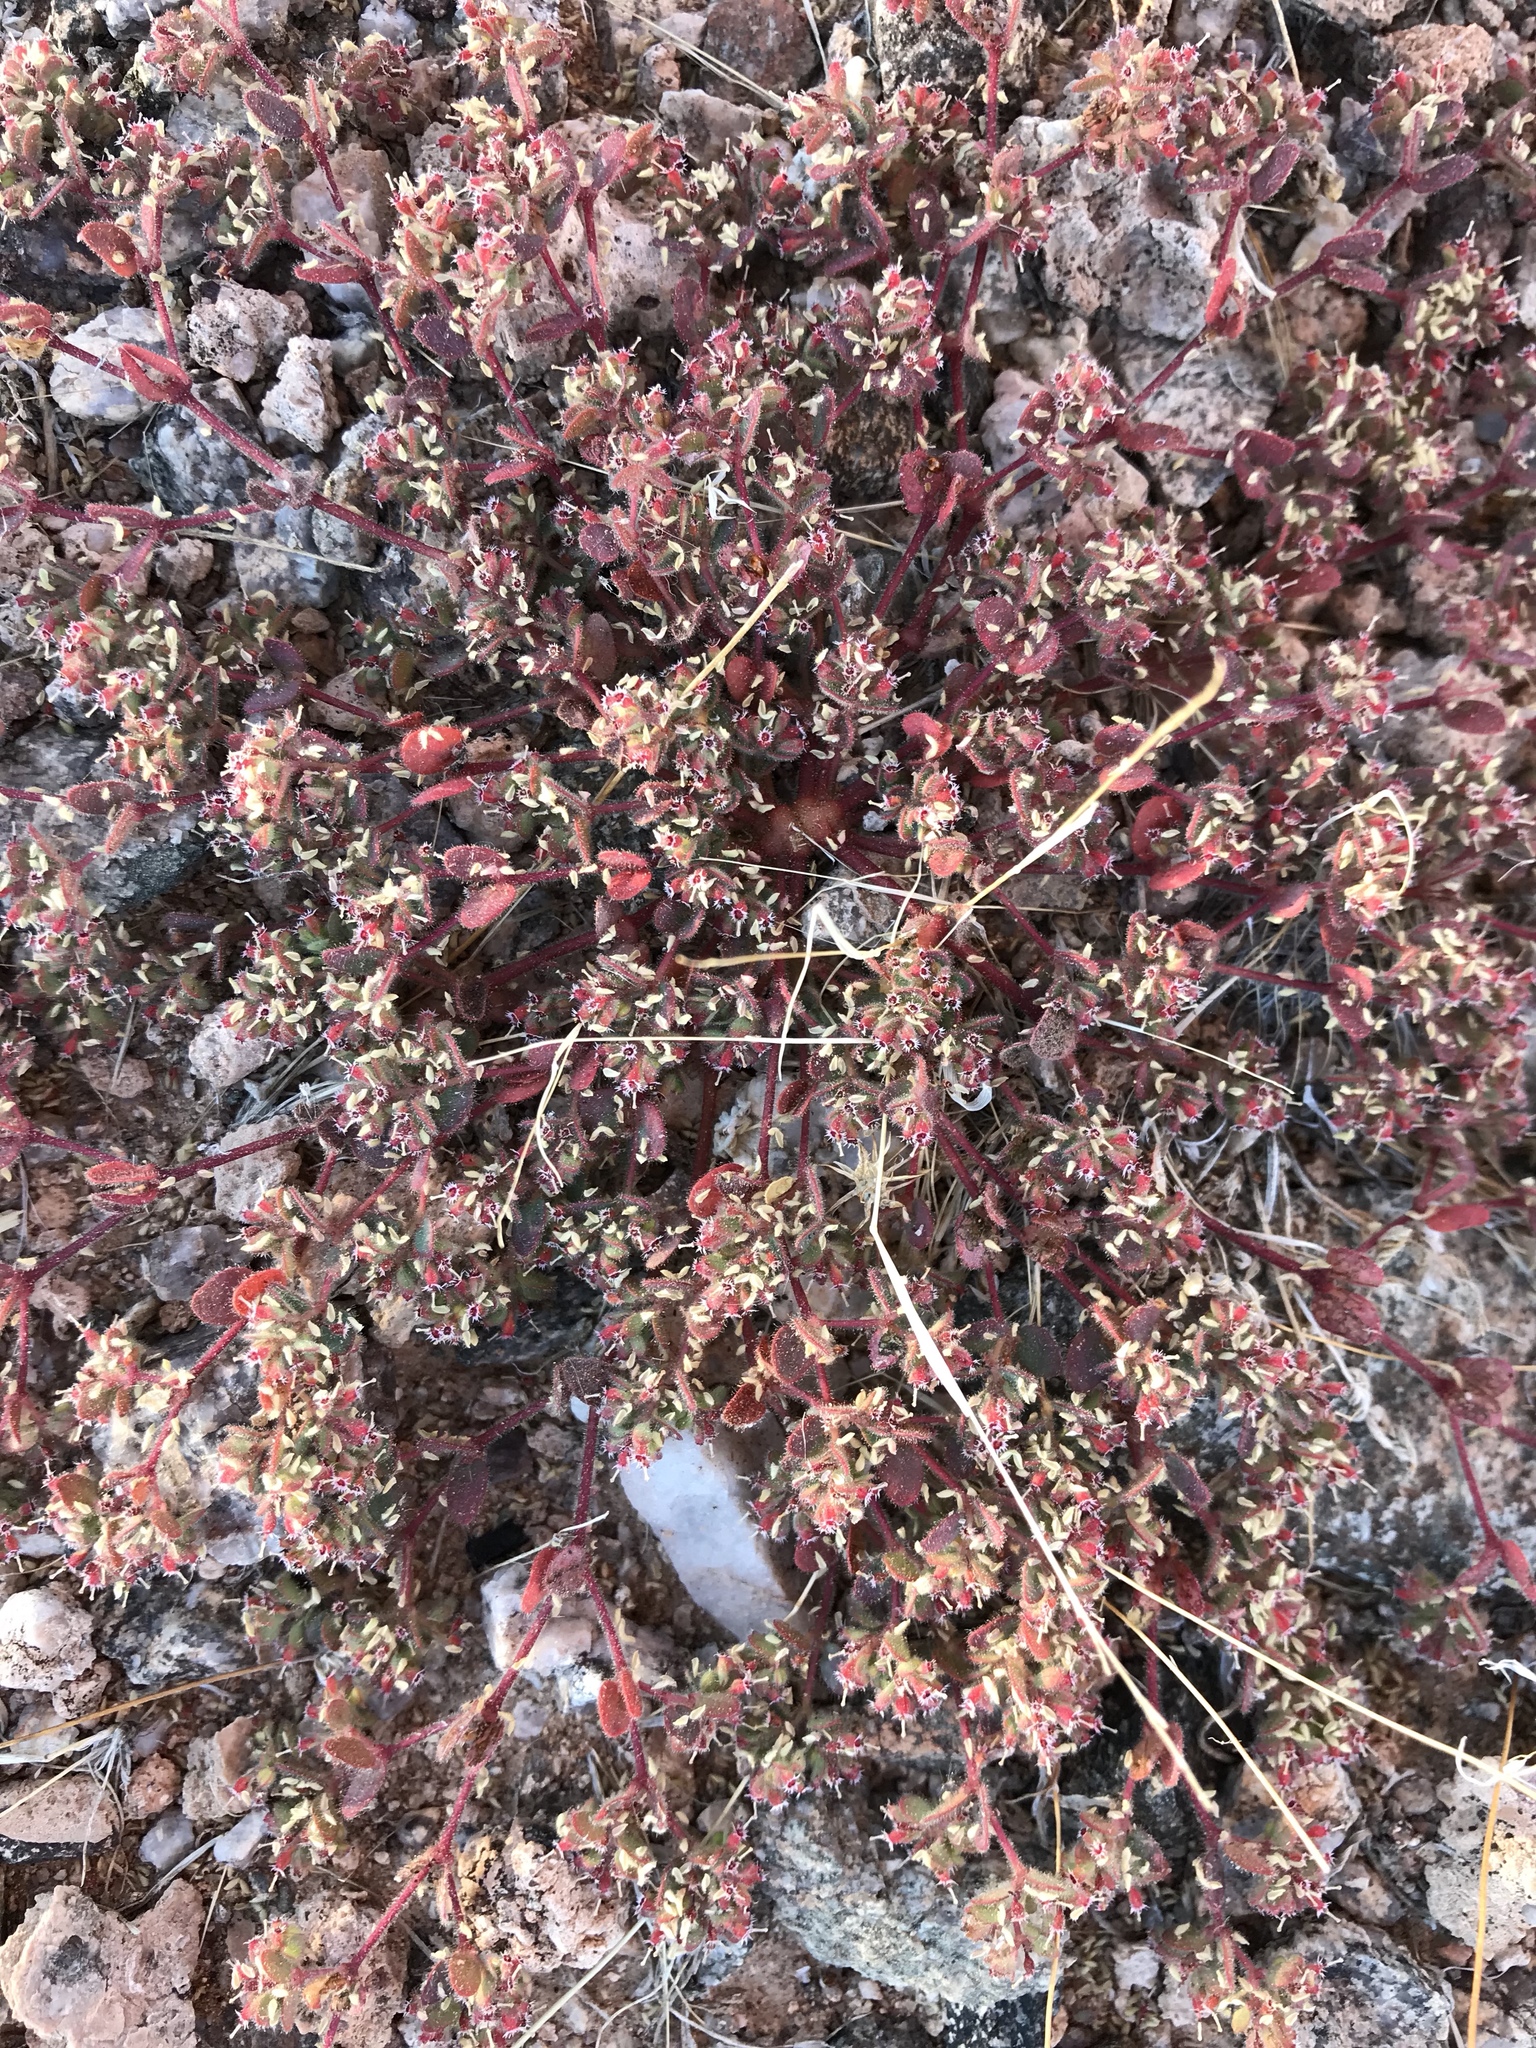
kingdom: Plantae
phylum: Tracheophyta
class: Magnoliopsida
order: Malpighiales
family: Euphorbiaceae
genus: Euphorbia
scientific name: Euphorbia setiloba
